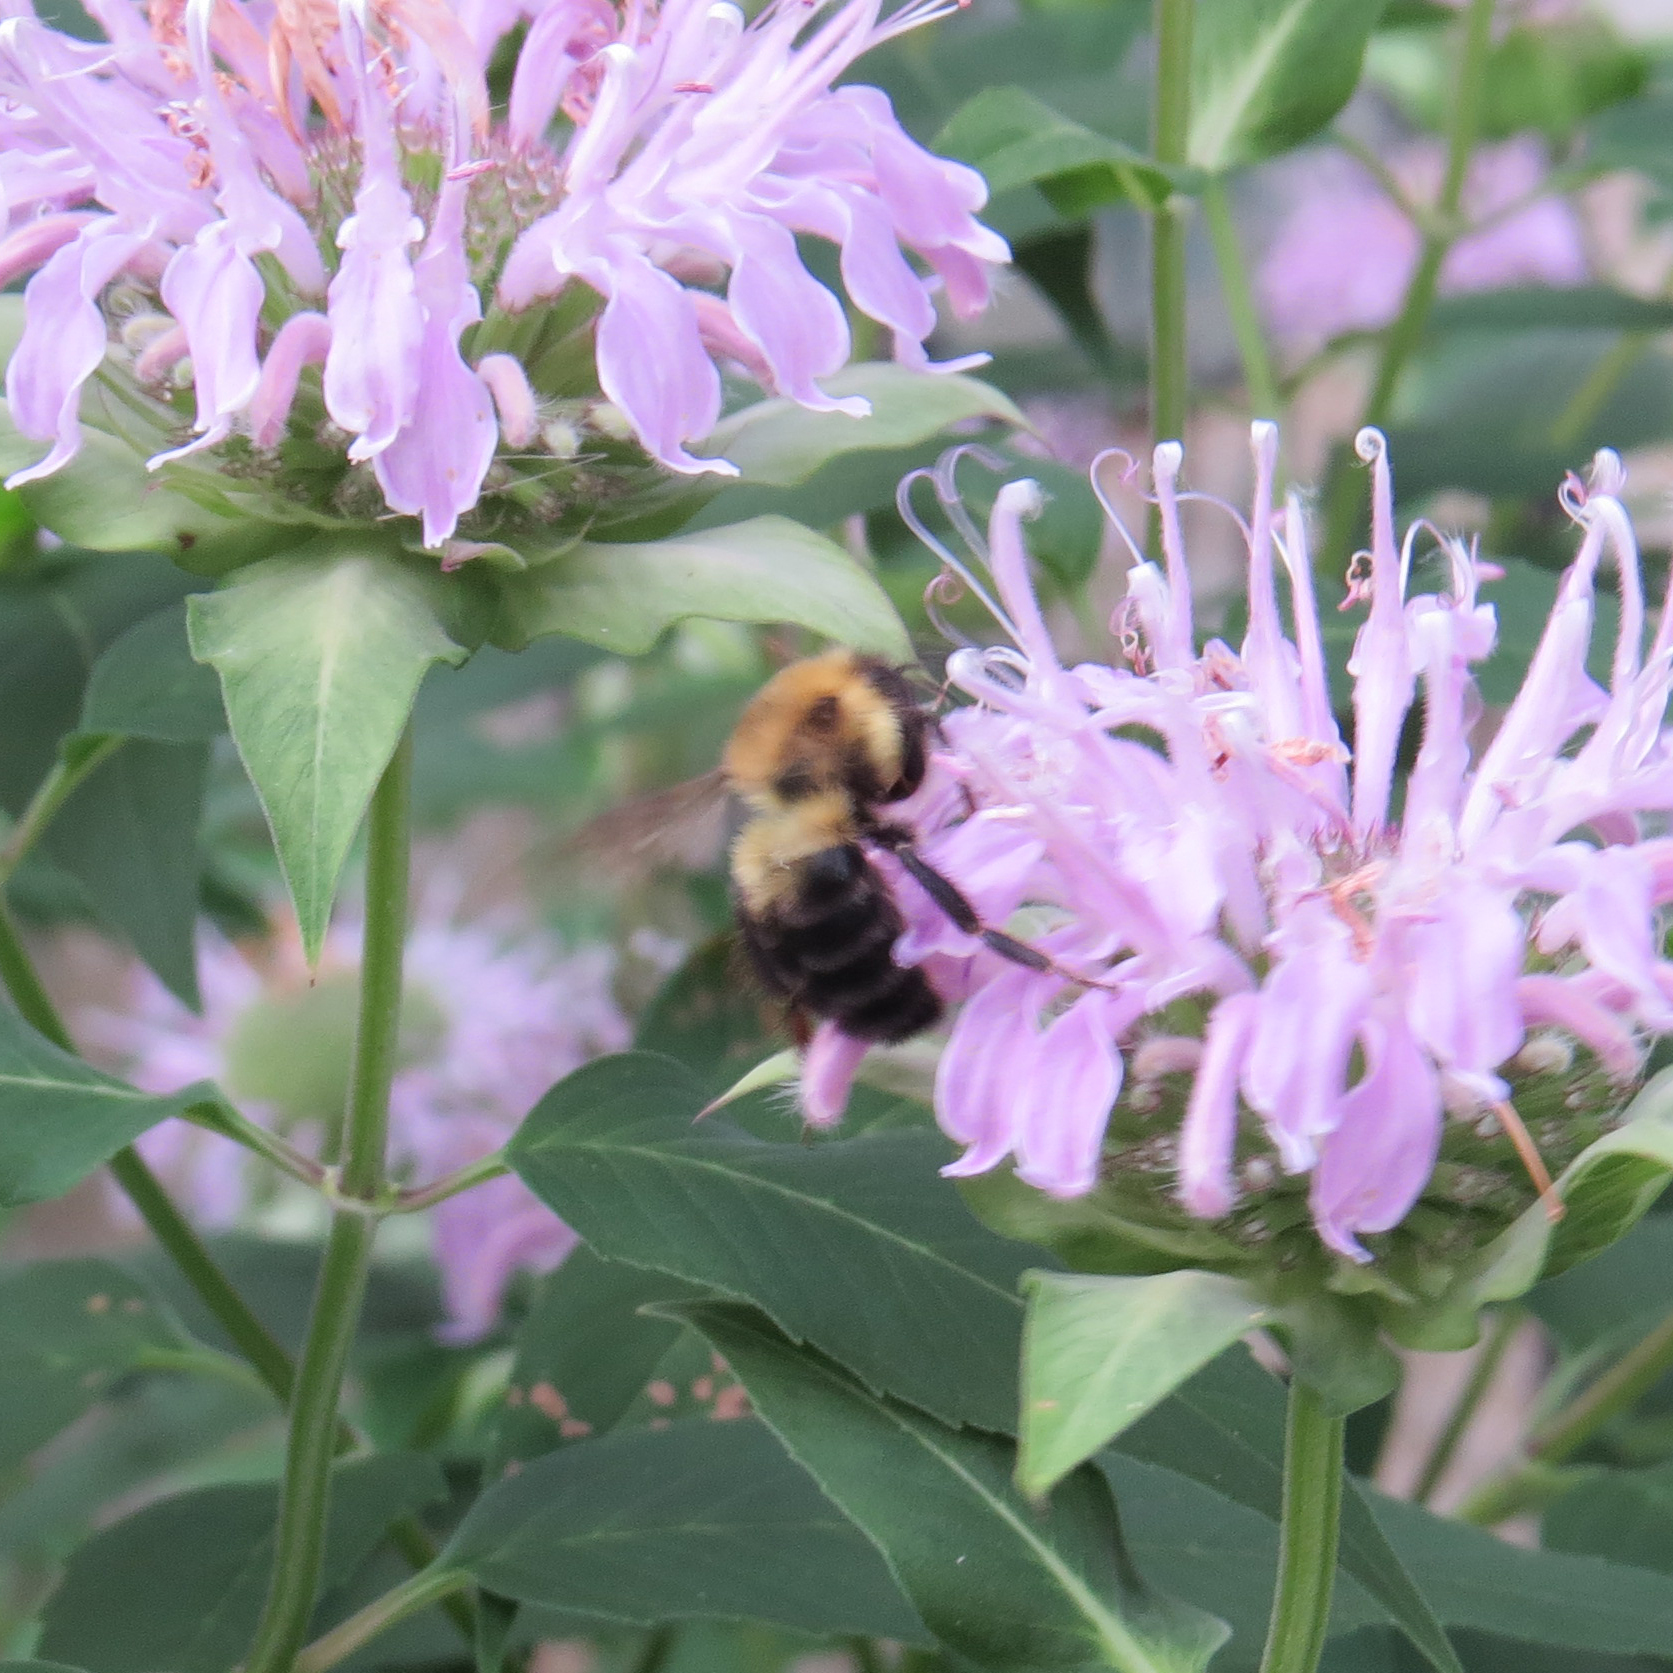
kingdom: Animalia
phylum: Arthropoda
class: Insecta
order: Hymenoptera
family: Apidae
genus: Bombus
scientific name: Bombus bimaculatus
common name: Two-spotted bumble bee
